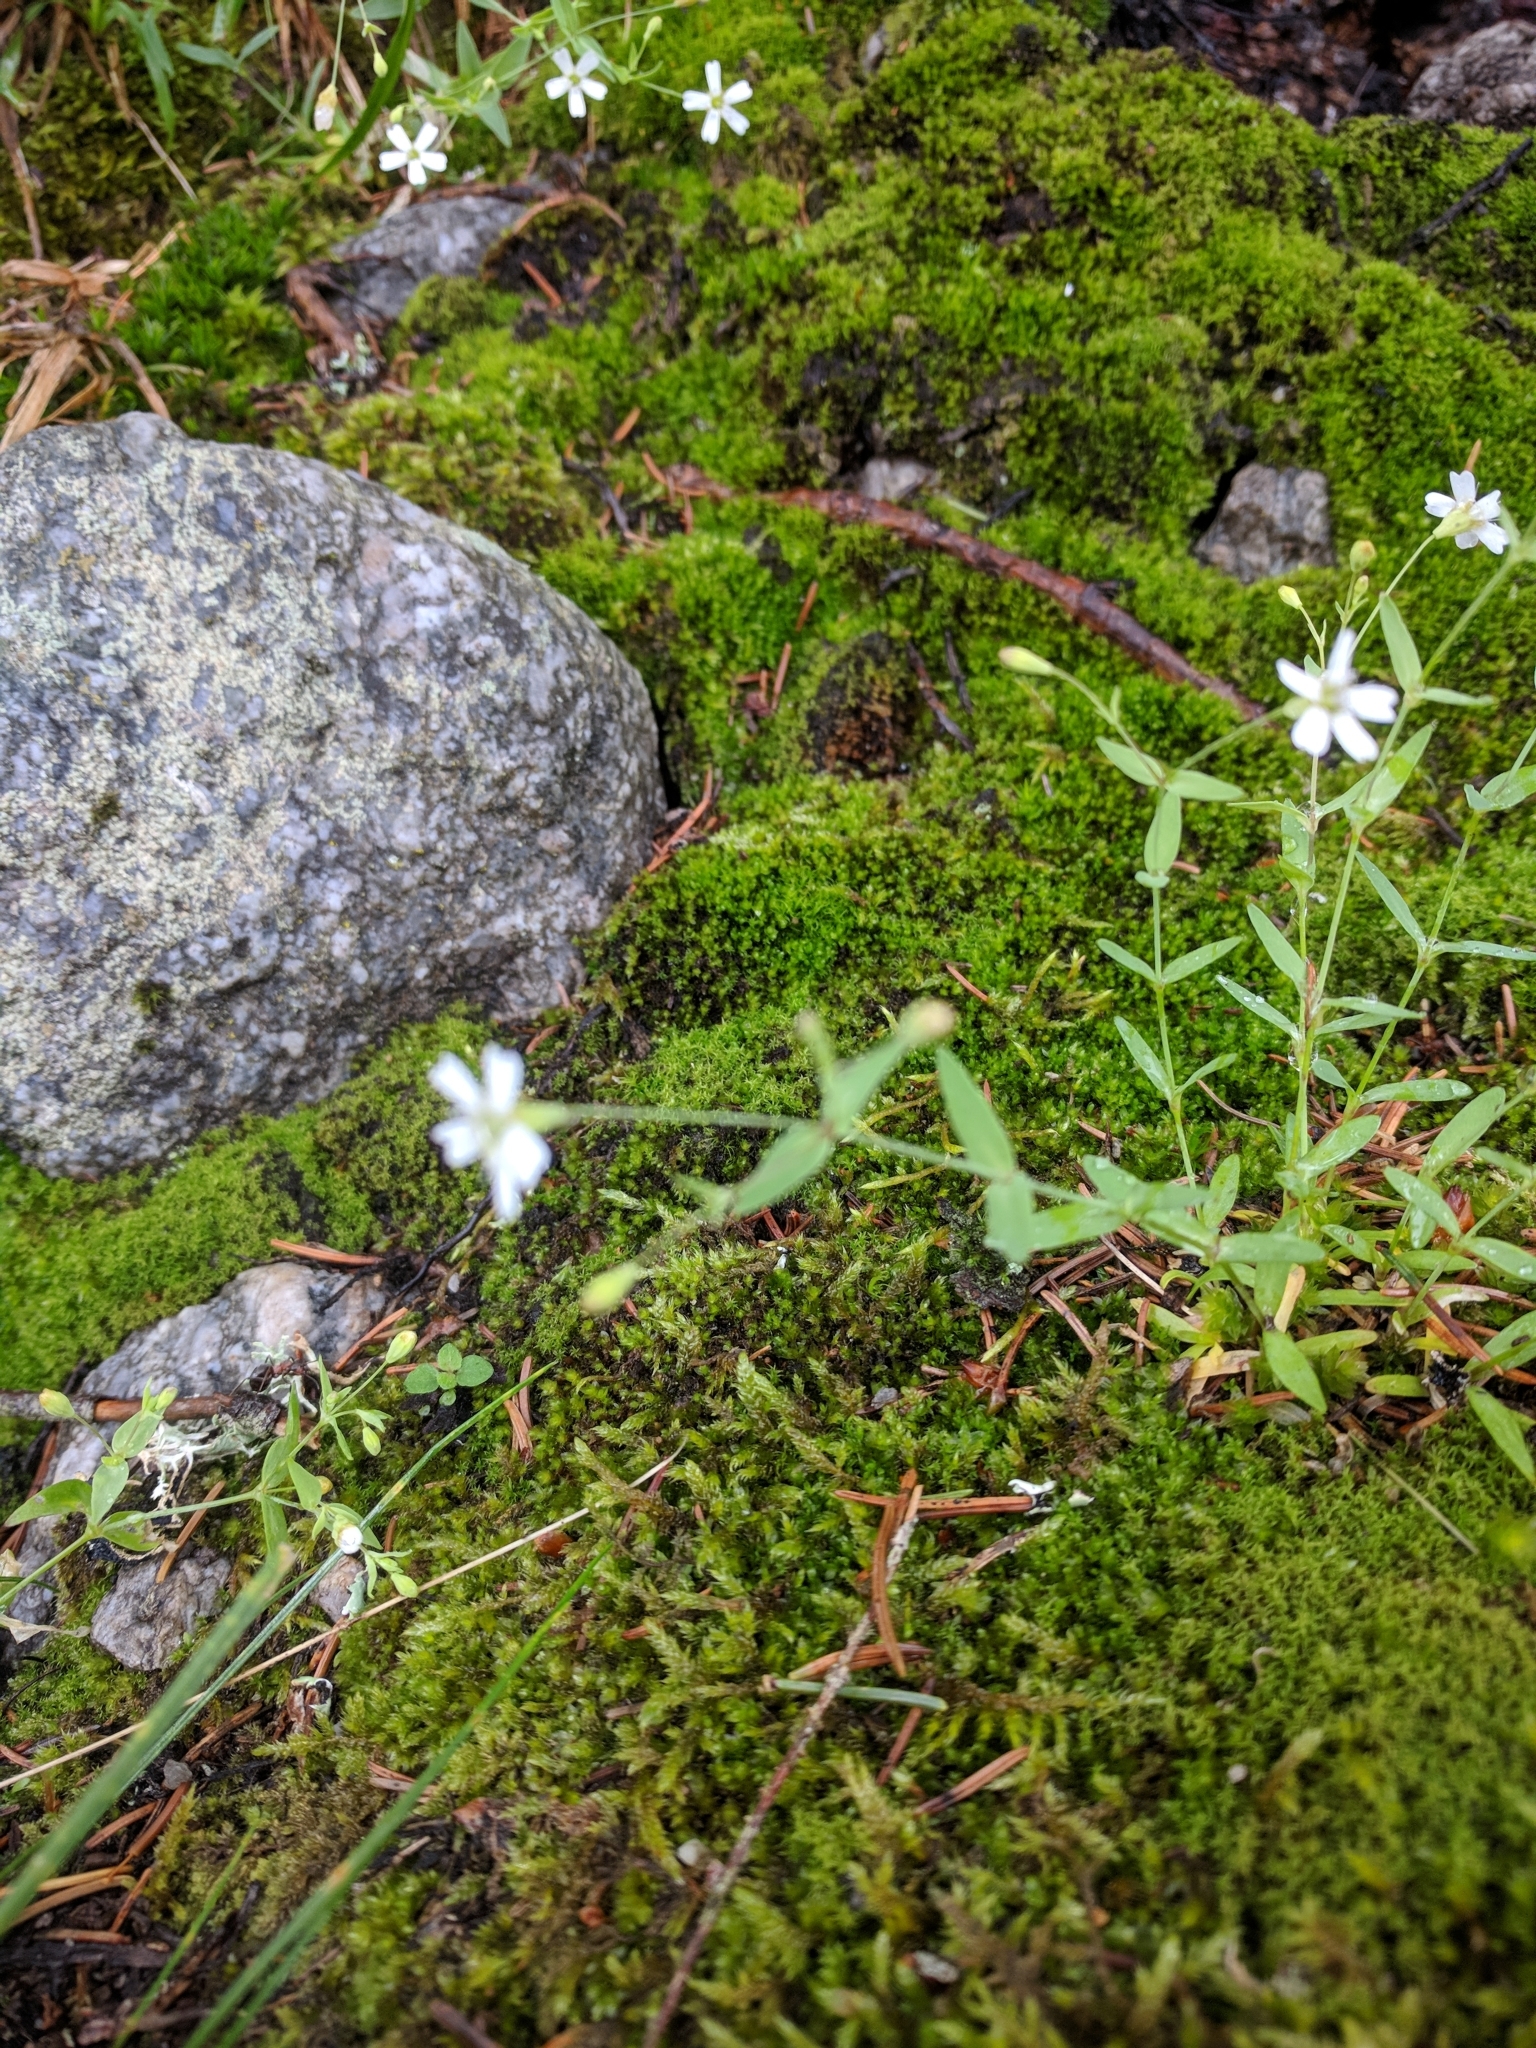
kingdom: Plantae
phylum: Tracheophyta
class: Magnoliopsida
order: Caryophyllales
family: Caryophyllaceae
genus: Atocion
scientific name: Atocion rupestre
